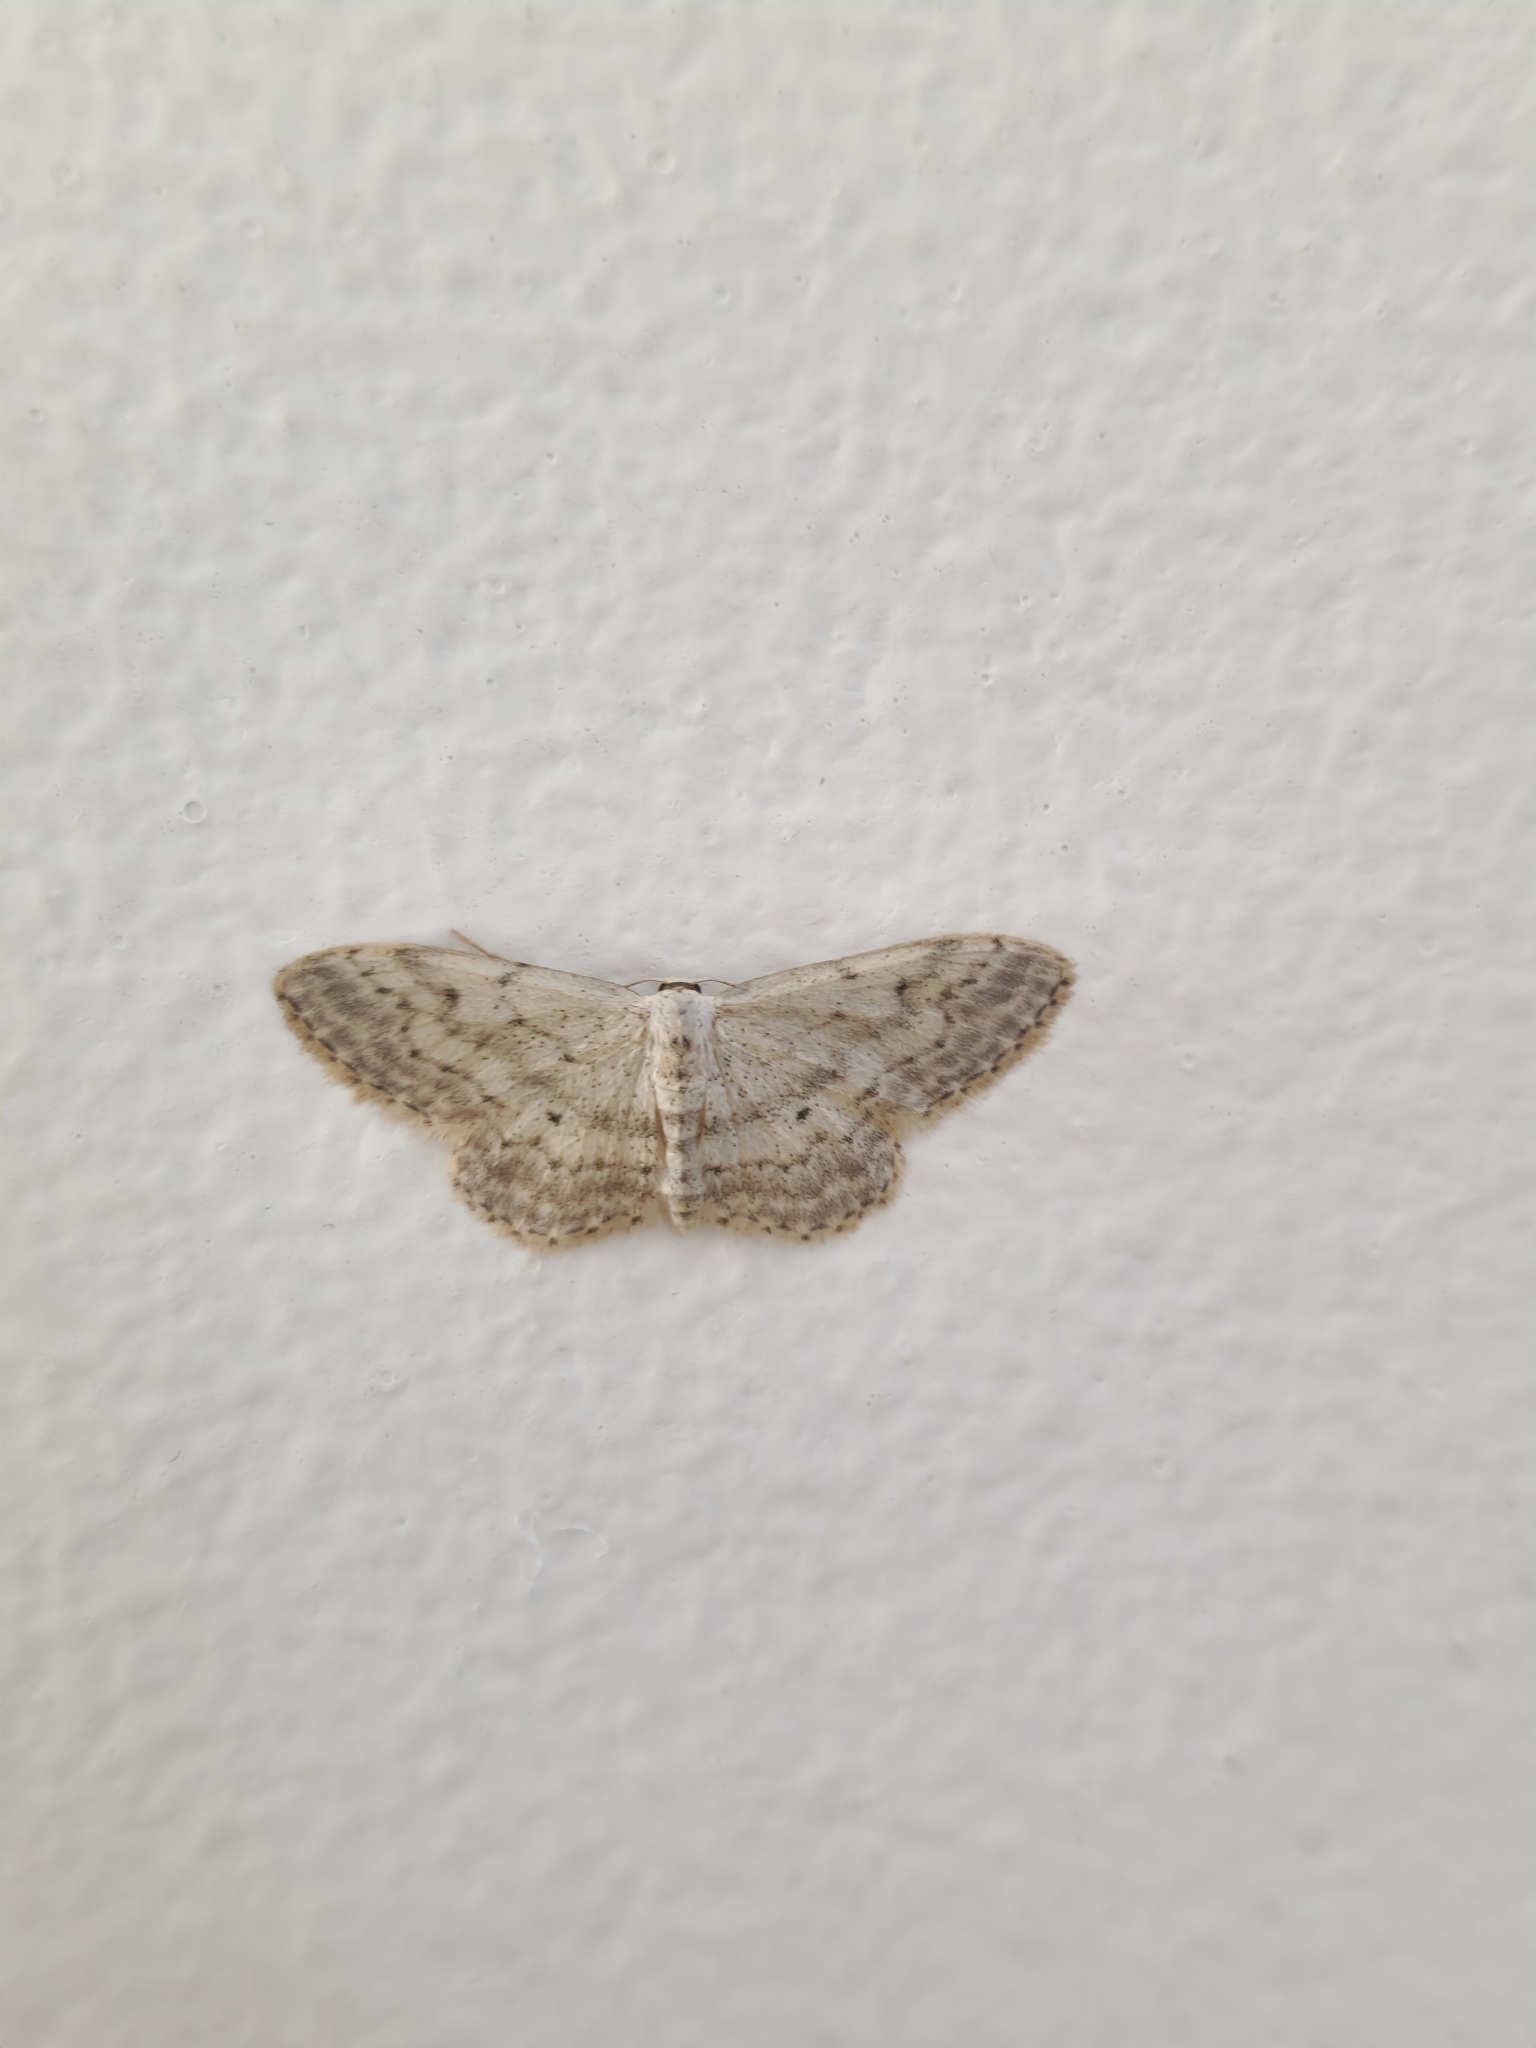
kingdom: Animalia
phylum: Arthropoda
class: Insecta
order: Lepidoptera
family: Geometridae
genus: Idaea
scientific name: Idaea seriata
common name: Small dusty wave
